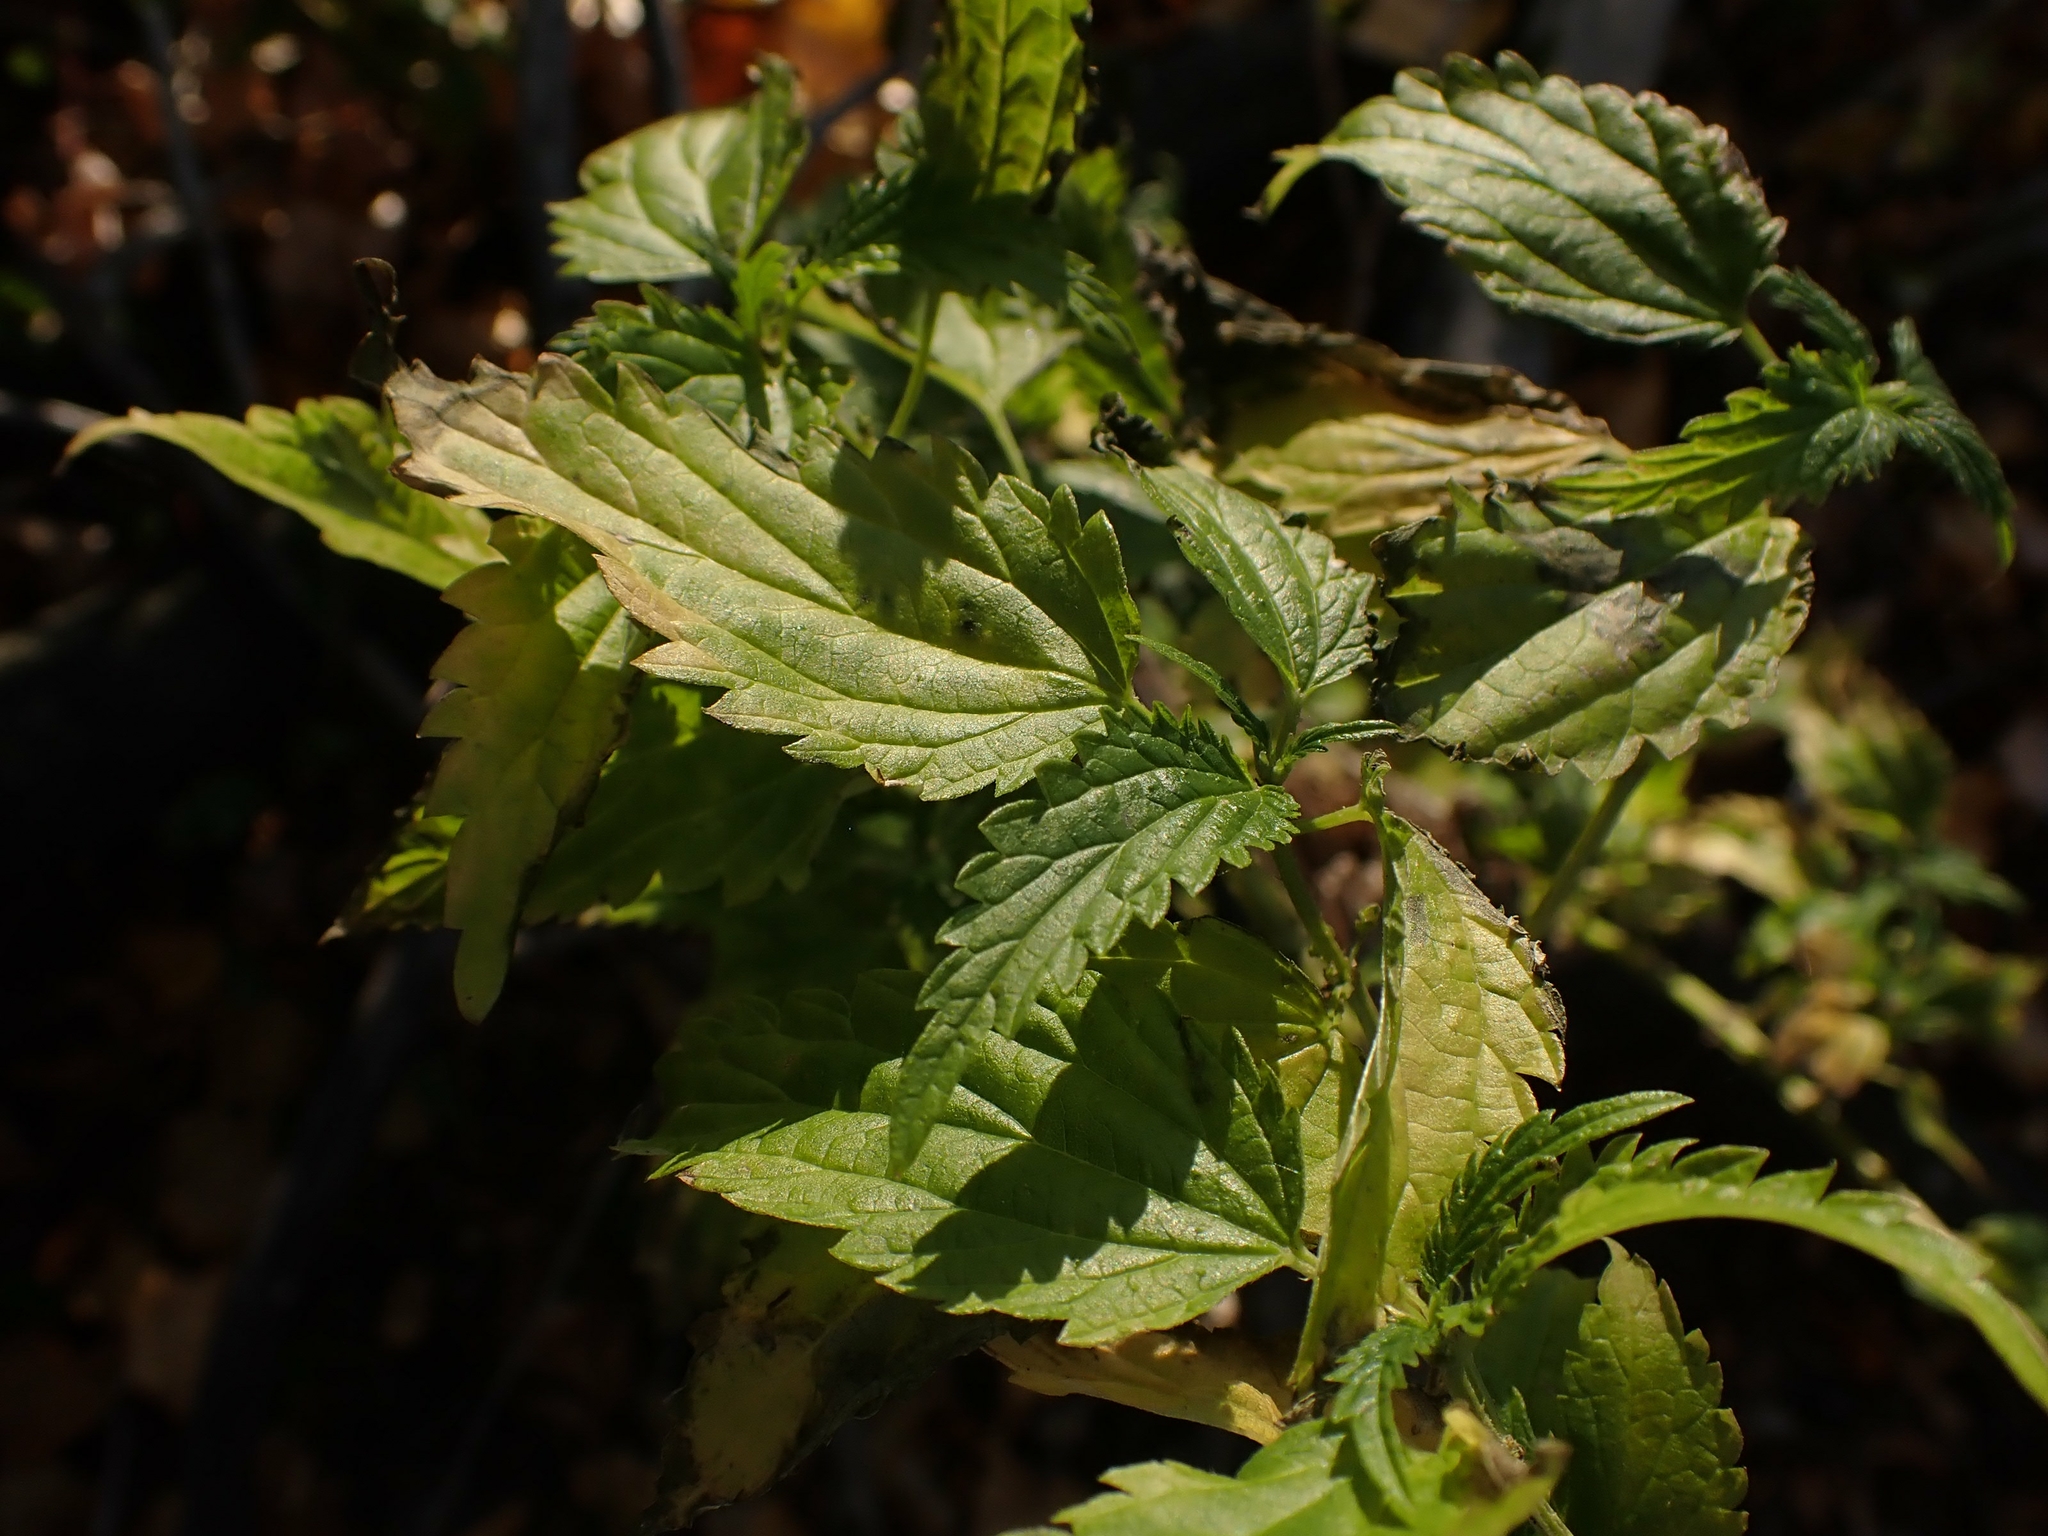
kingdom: Plantae
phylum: Tracheophyta
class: Magnoliopsida
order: Rosales
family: Urticaceae
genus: Urtica
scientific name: Urtica gracilis
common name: Slender stinging nettle
